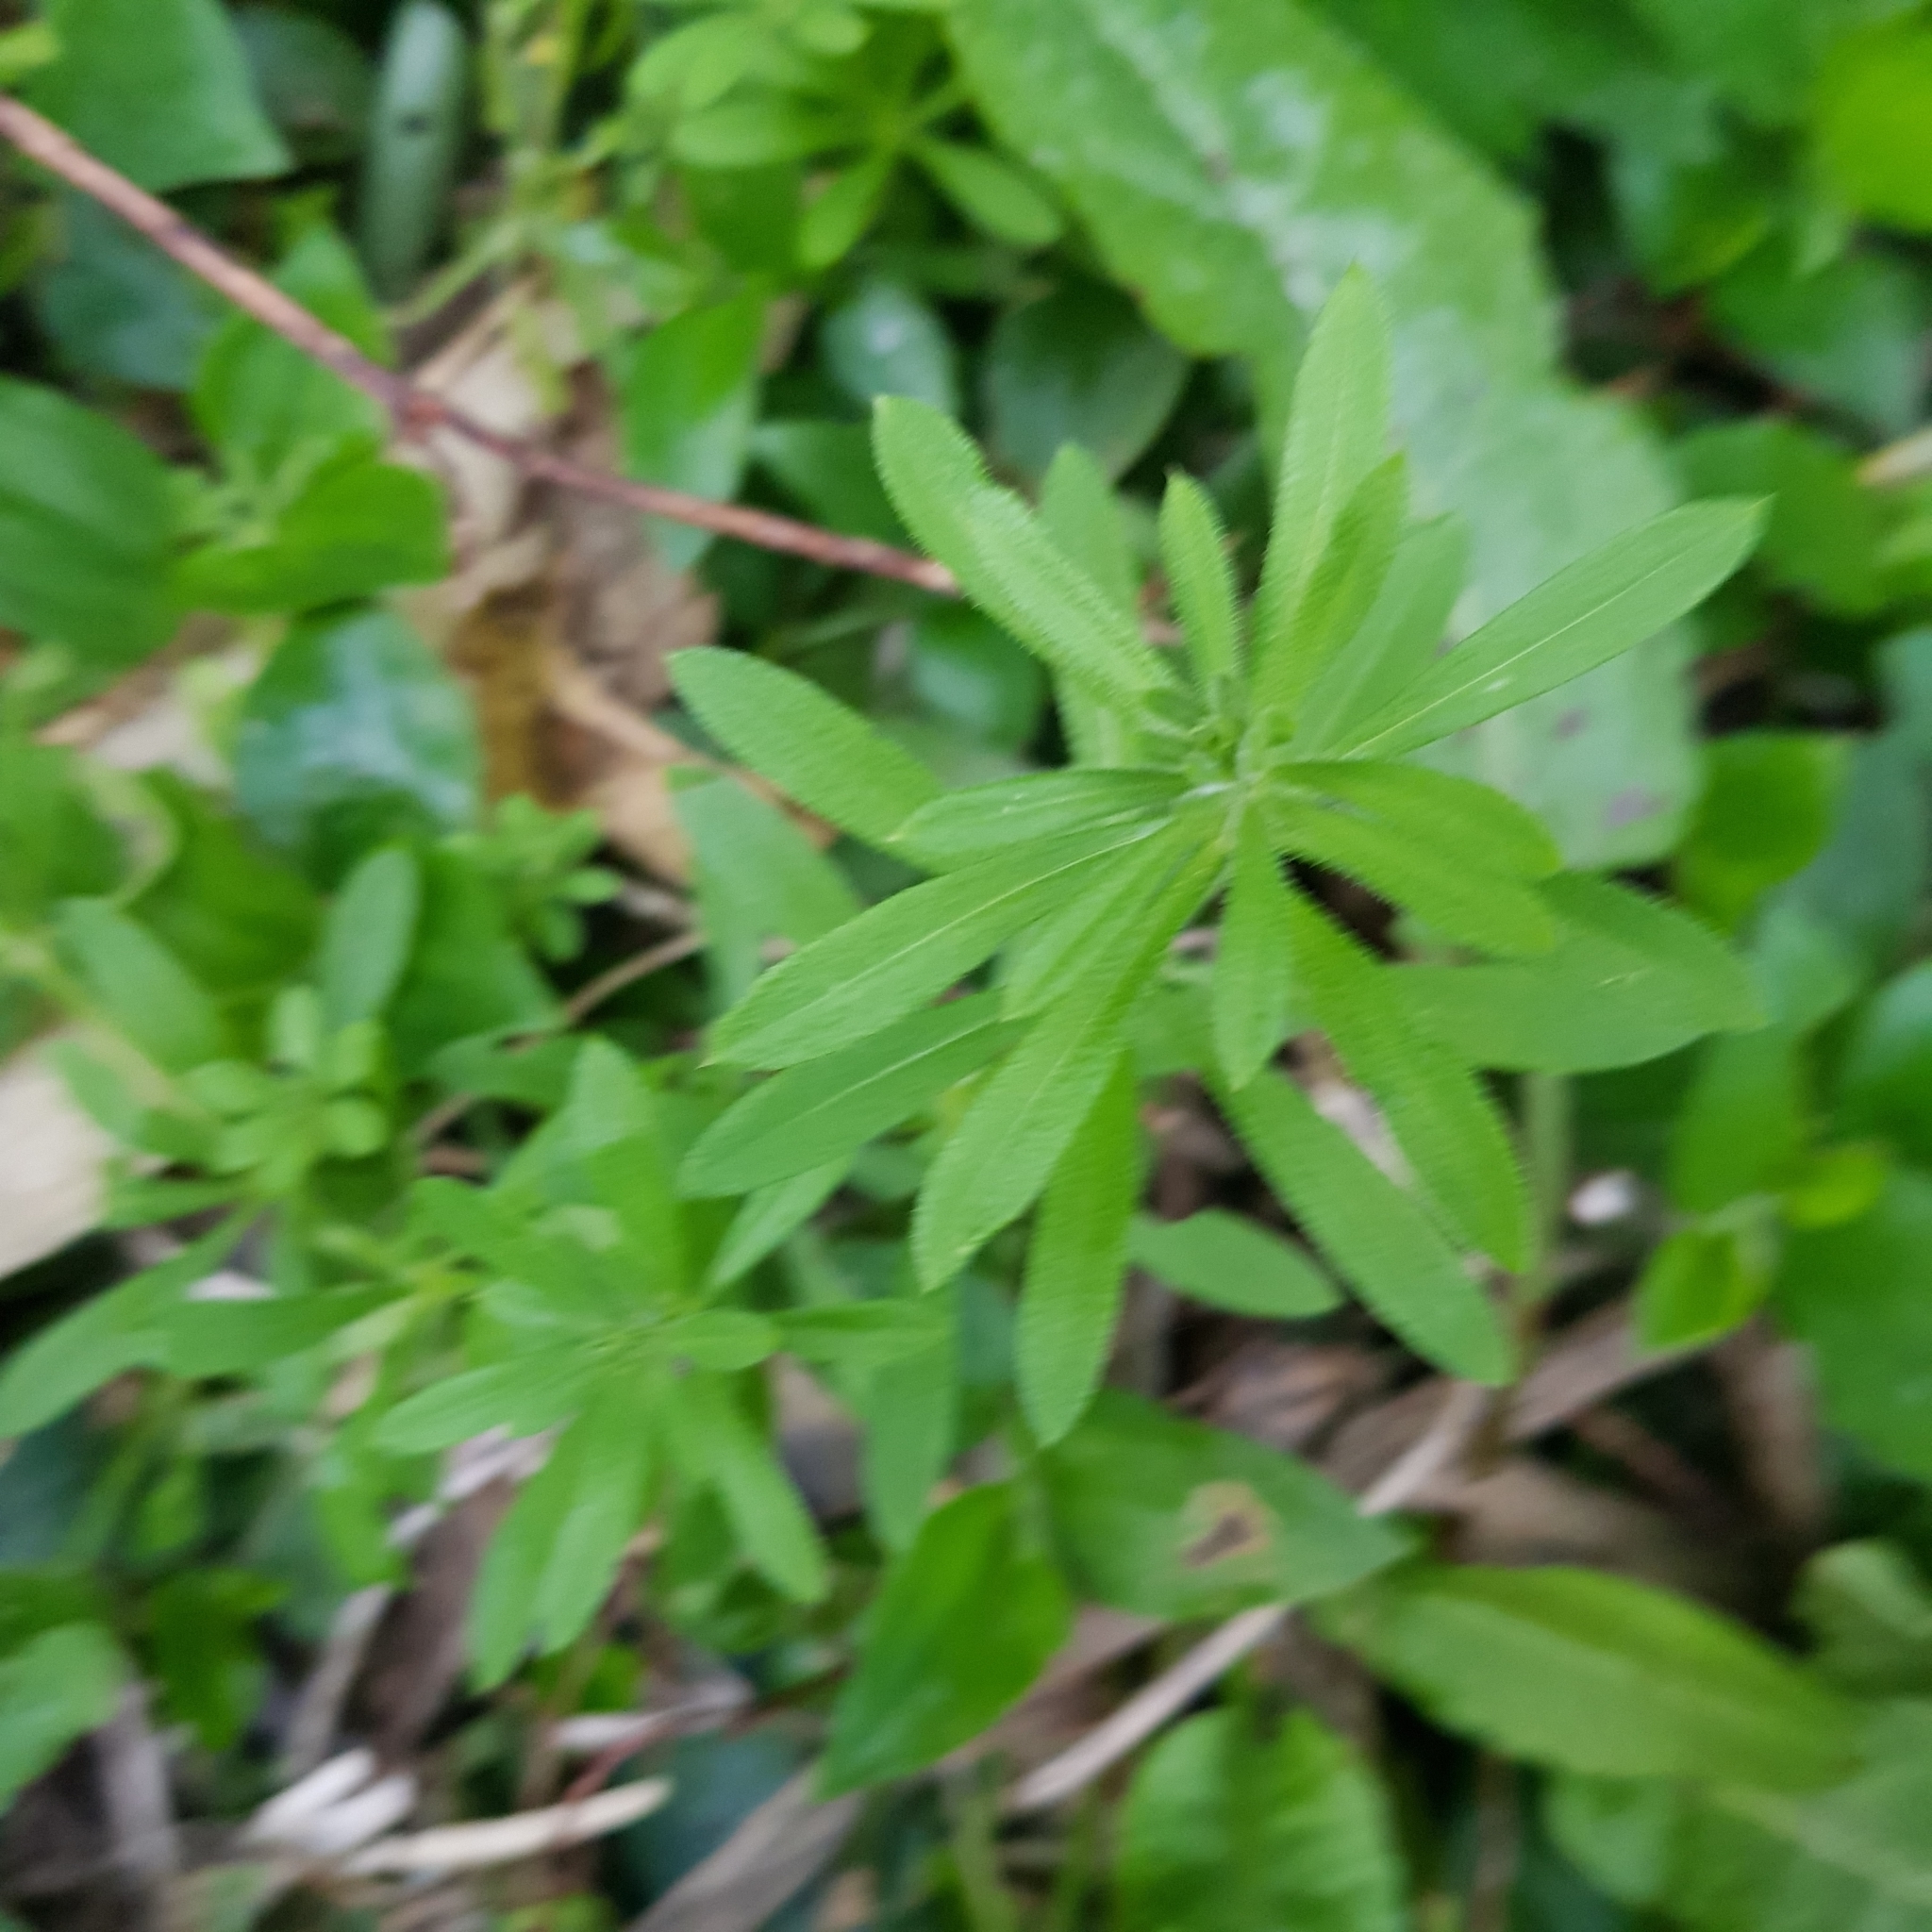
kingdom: Plantae
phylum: Tracheophyta
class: Magnoliopsida
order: Gentianales
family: Rubiaceae
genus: Galium
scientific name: Galium aparine
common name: Cleavers
